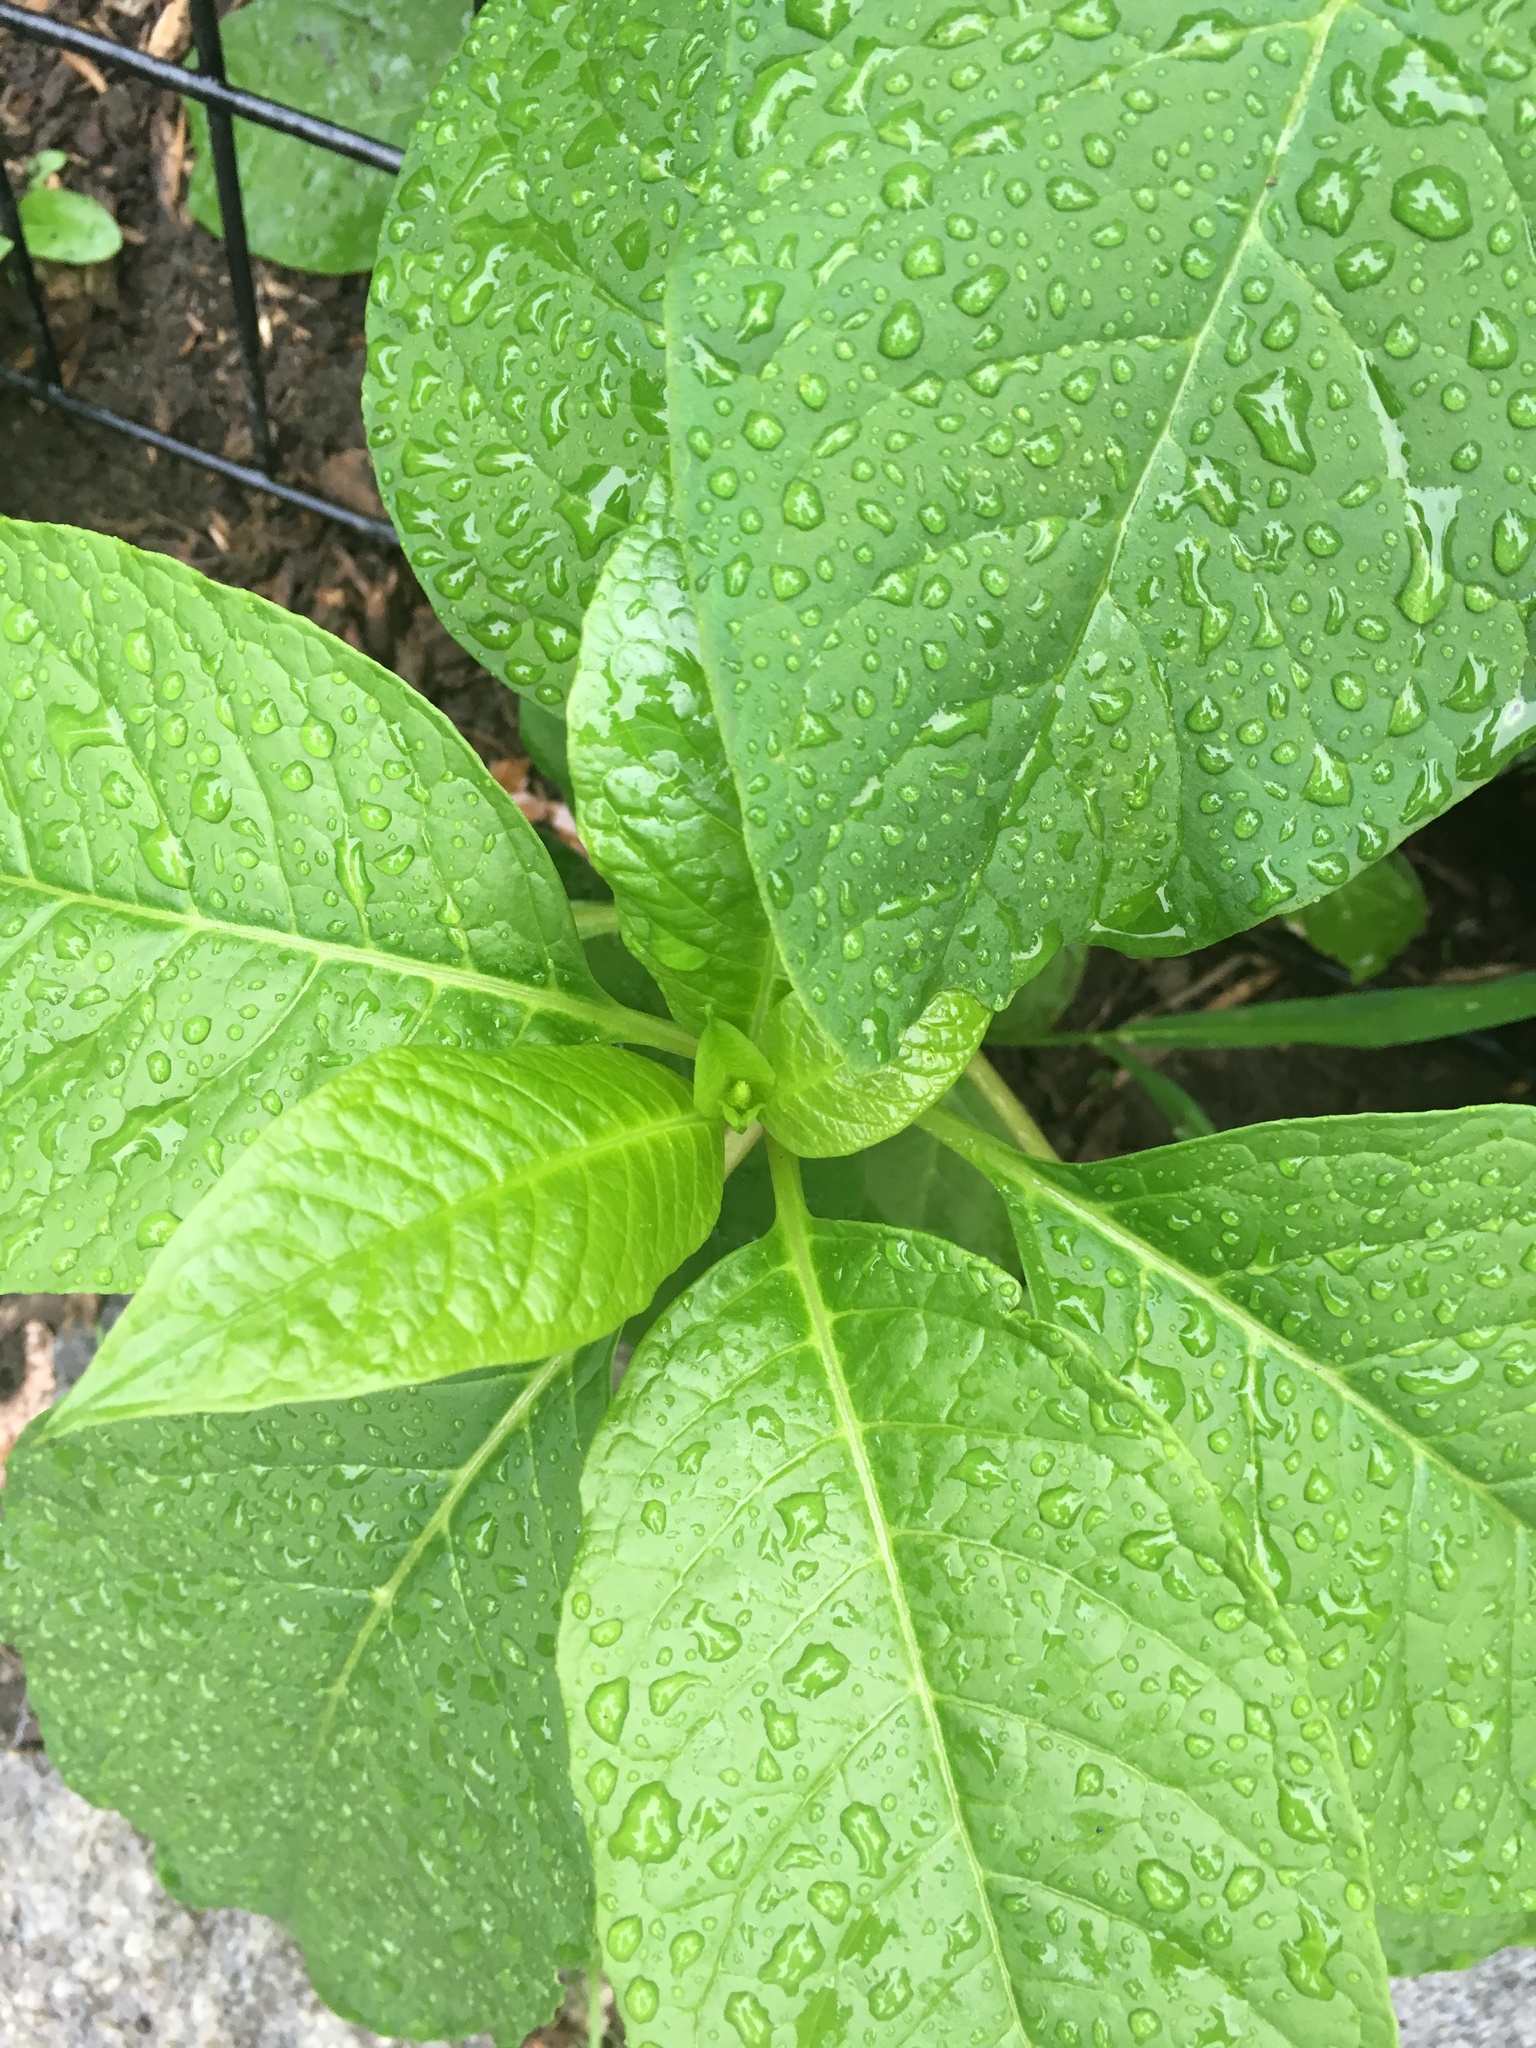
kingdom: Plantae
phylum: Tracheophyta
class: Magnoliopsida
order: Caryophyllales
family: Phytolaccaceae
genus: Phytolacca
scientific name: Phytolacca americana
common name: American pokeweed
